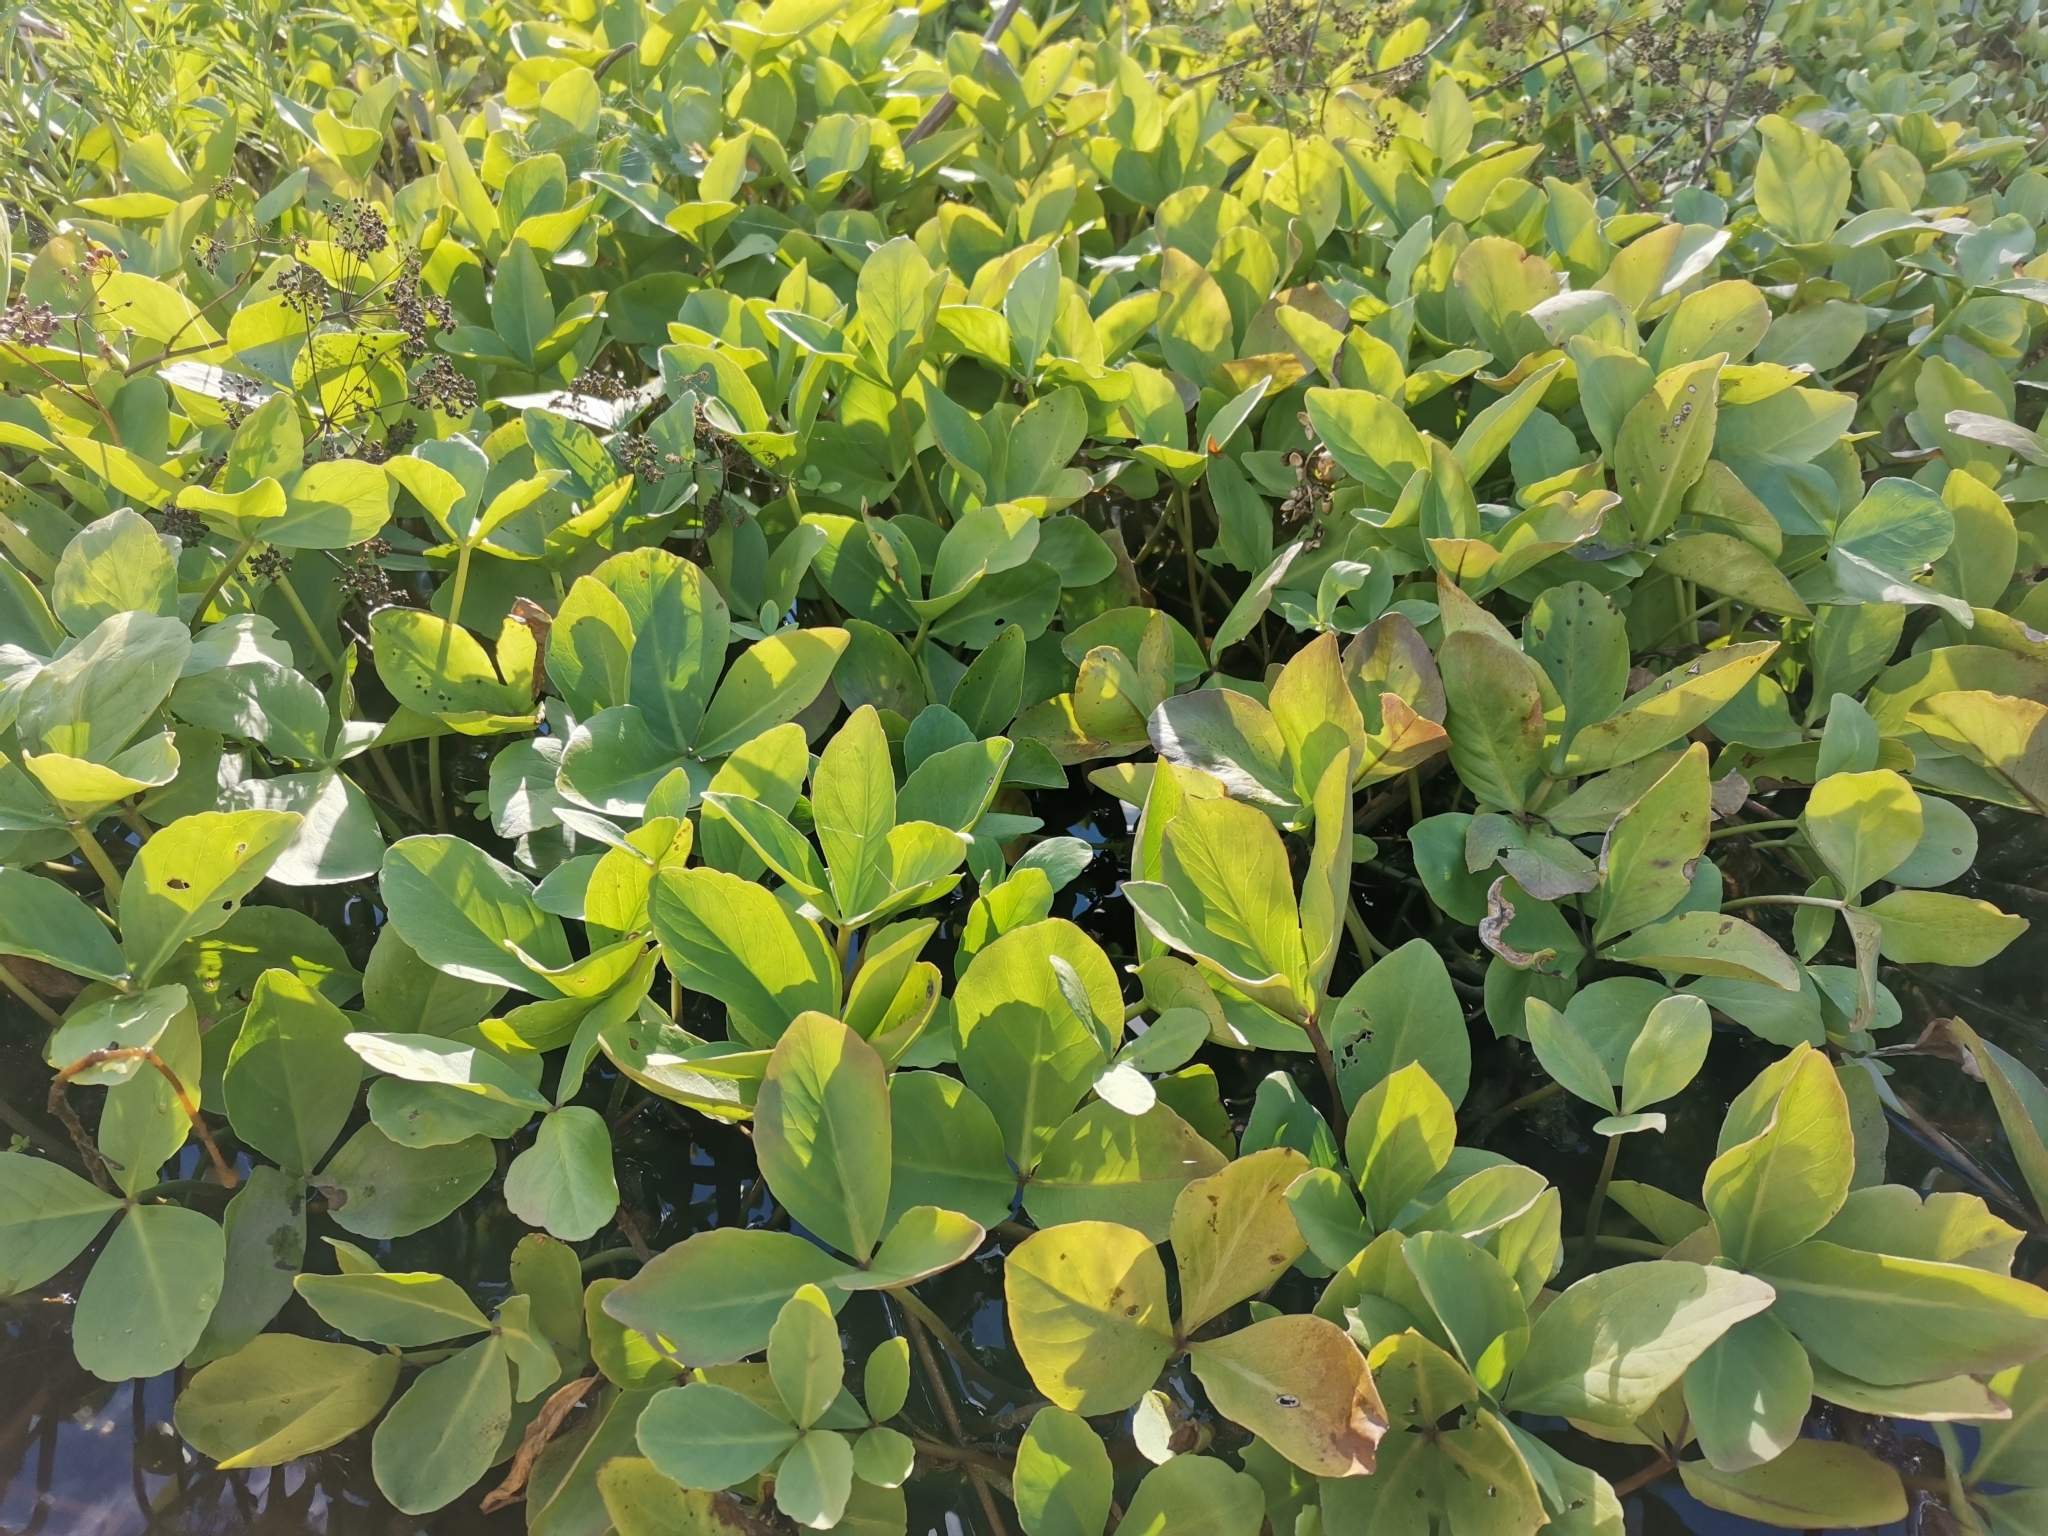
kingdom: Plantae
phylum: Tracheophyta
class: Magnoliopsida
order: Asterales
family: Menyanthaceae
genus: Menyanthes
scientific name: Menyanthes trifoliata
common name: Bogbean
